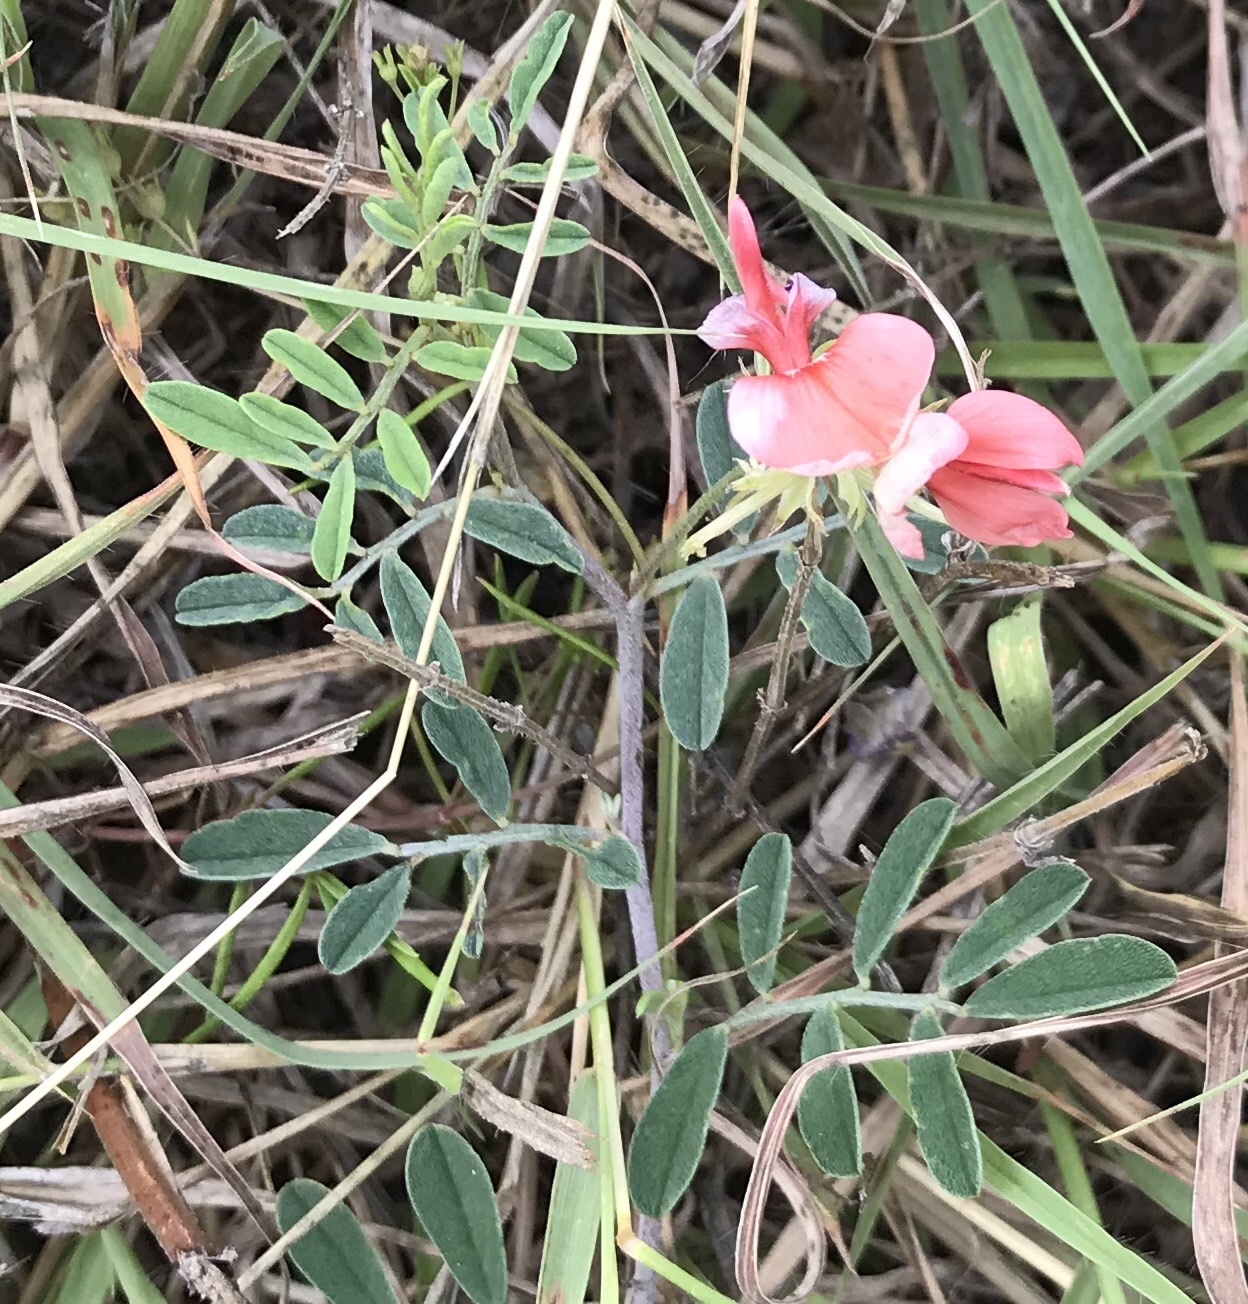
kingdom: Plantae
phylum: Tracheophyta
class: Magnoliopsida
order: Fabales
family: Fabaceae
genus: Indigofera
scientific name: Indigofera miniata
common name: Coast indigo
